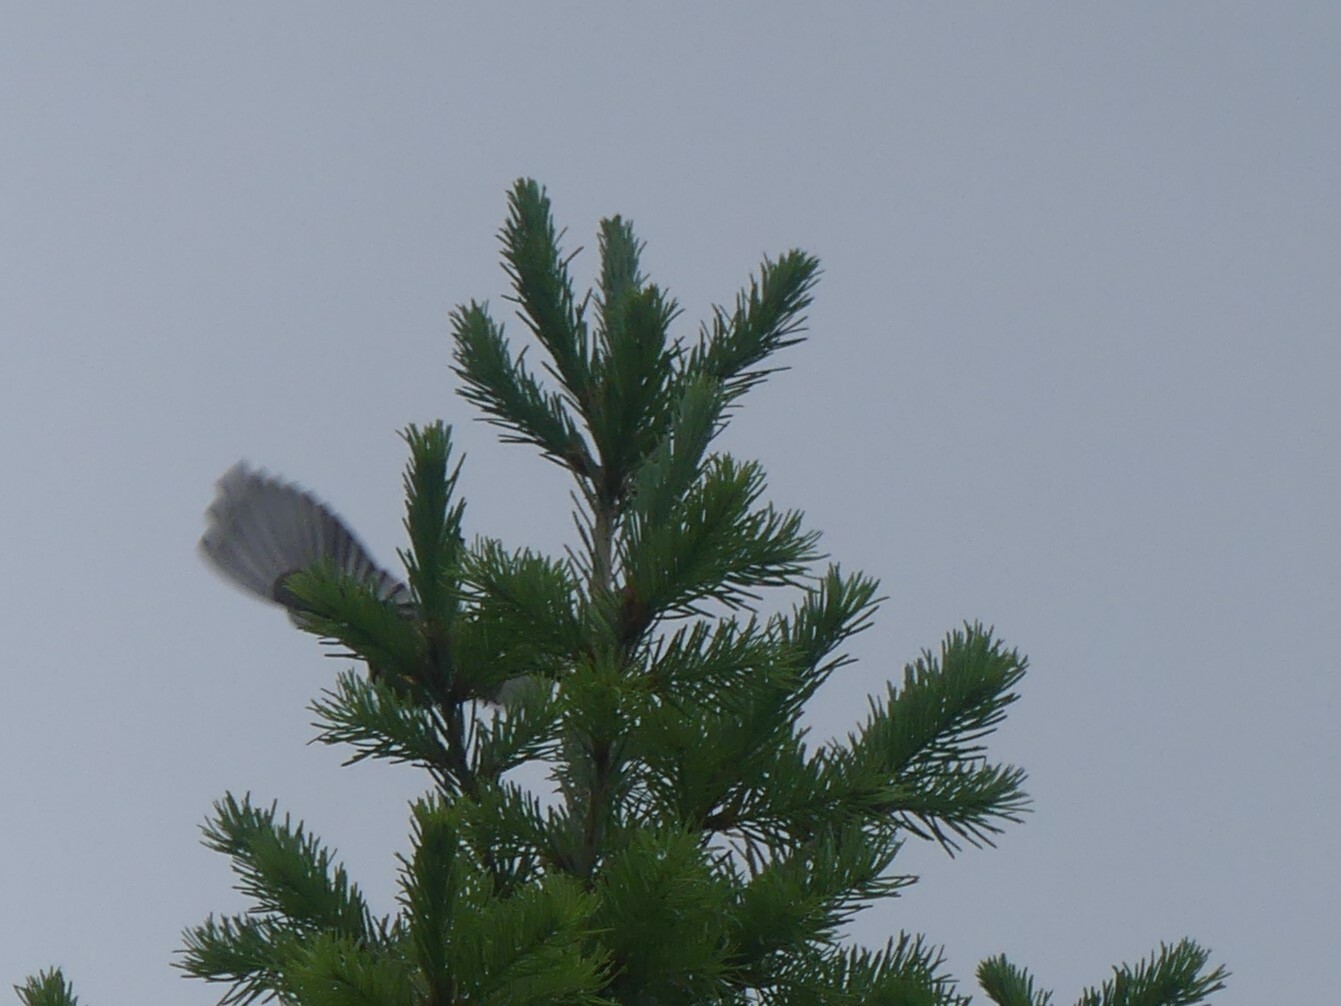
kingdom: Animalia
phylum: Chordata
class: Aves
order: Passeriformes
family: Parulidae
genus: Setophaga
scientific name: Setophaga townsendi
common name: Townsend's warbler
